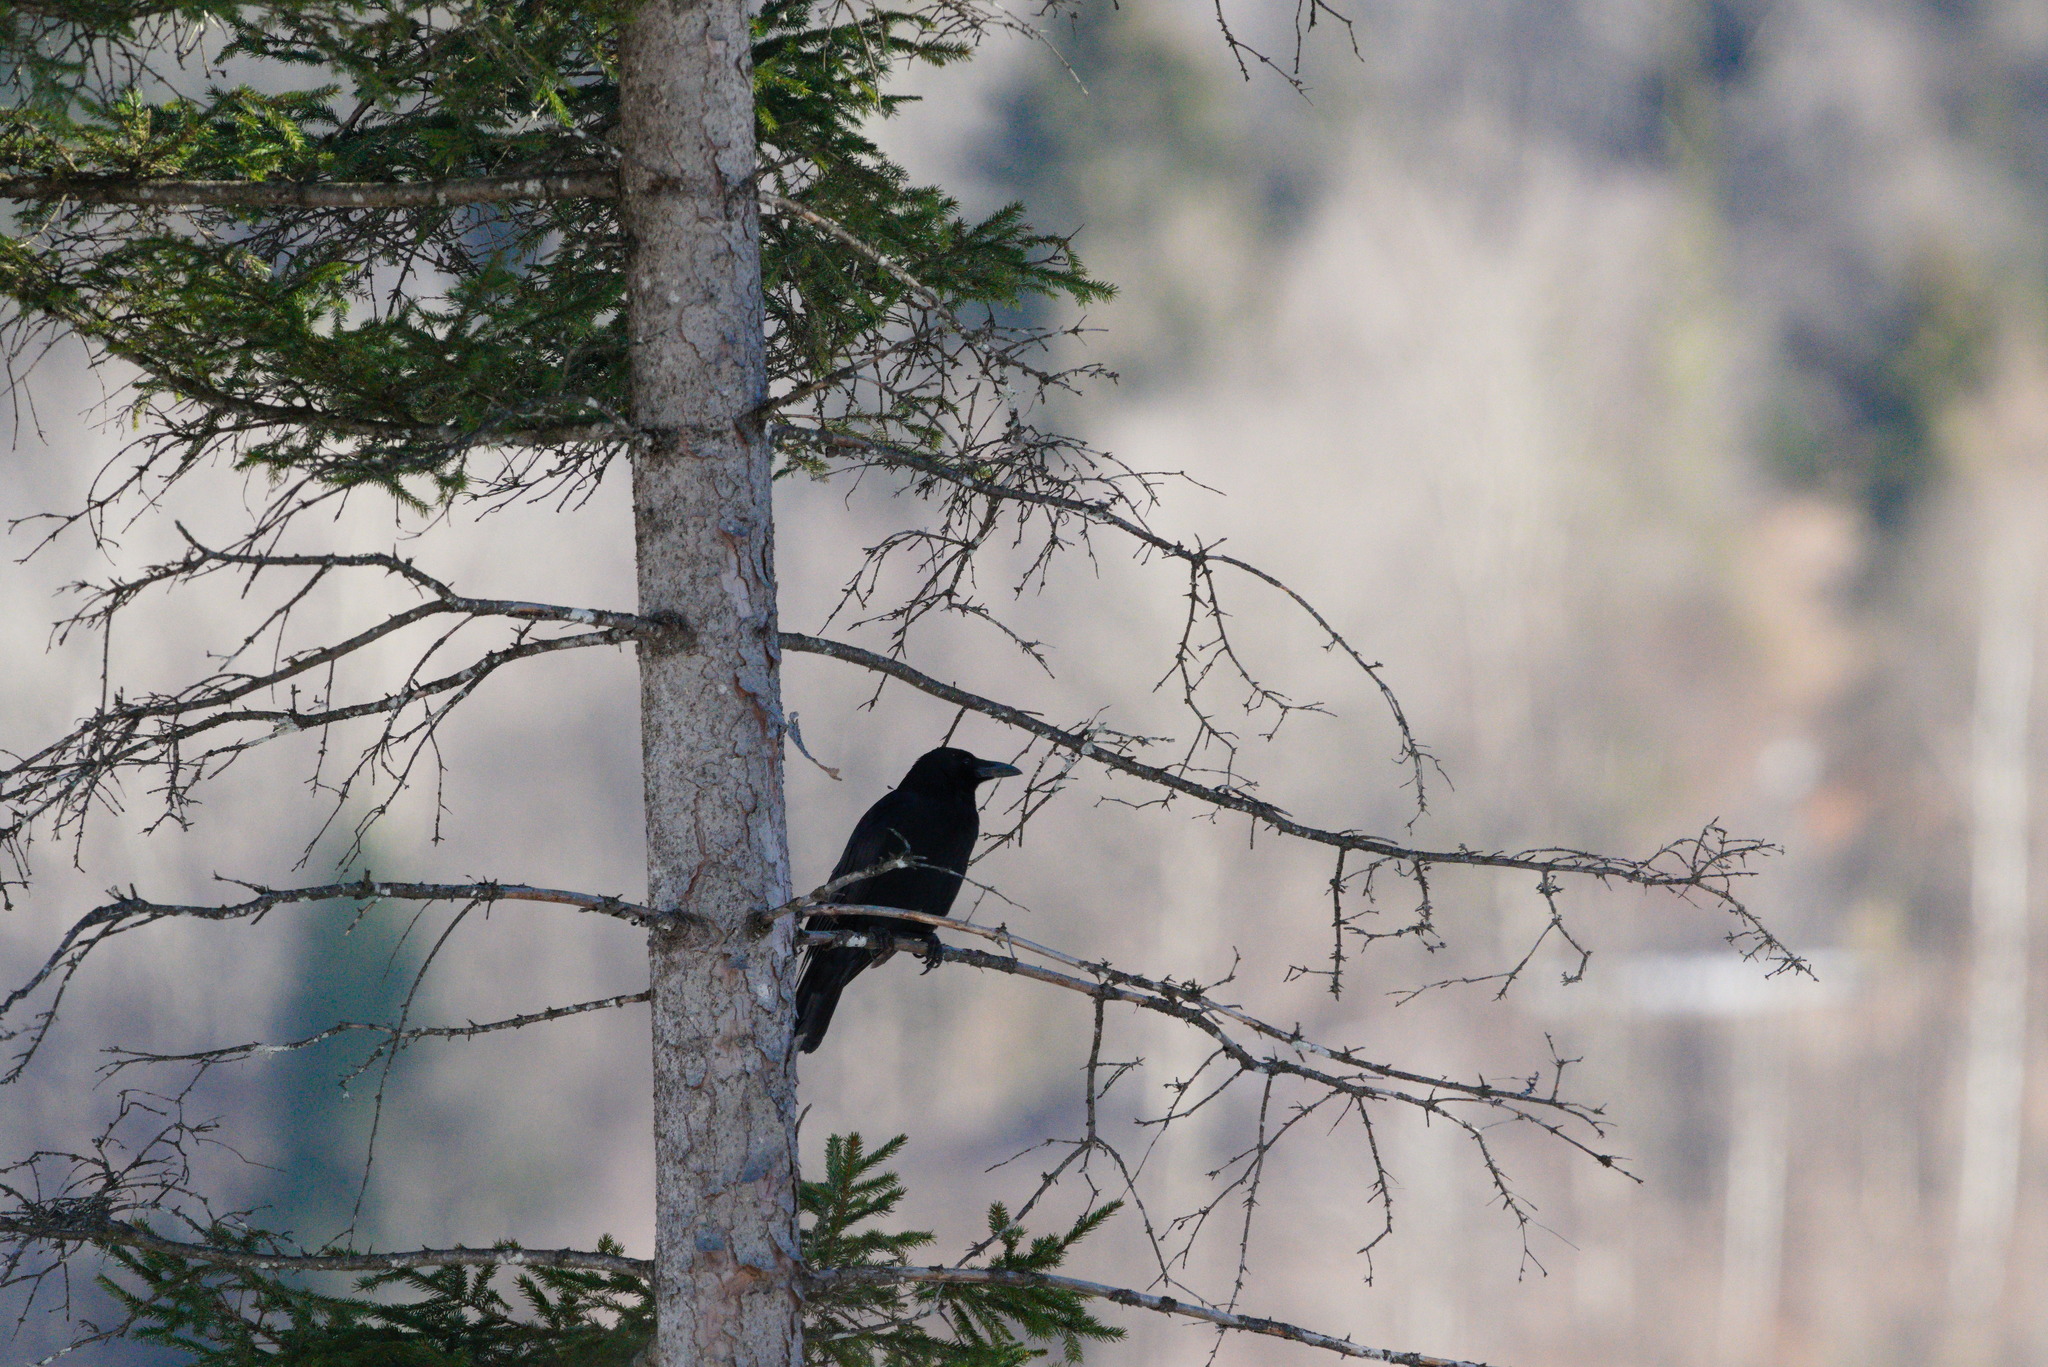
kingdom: Animalia
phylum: Chordata
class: Aves
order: Passeriformes
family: Corvidae
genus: Corvus
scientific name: Corvus corone
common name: Carrion crow
